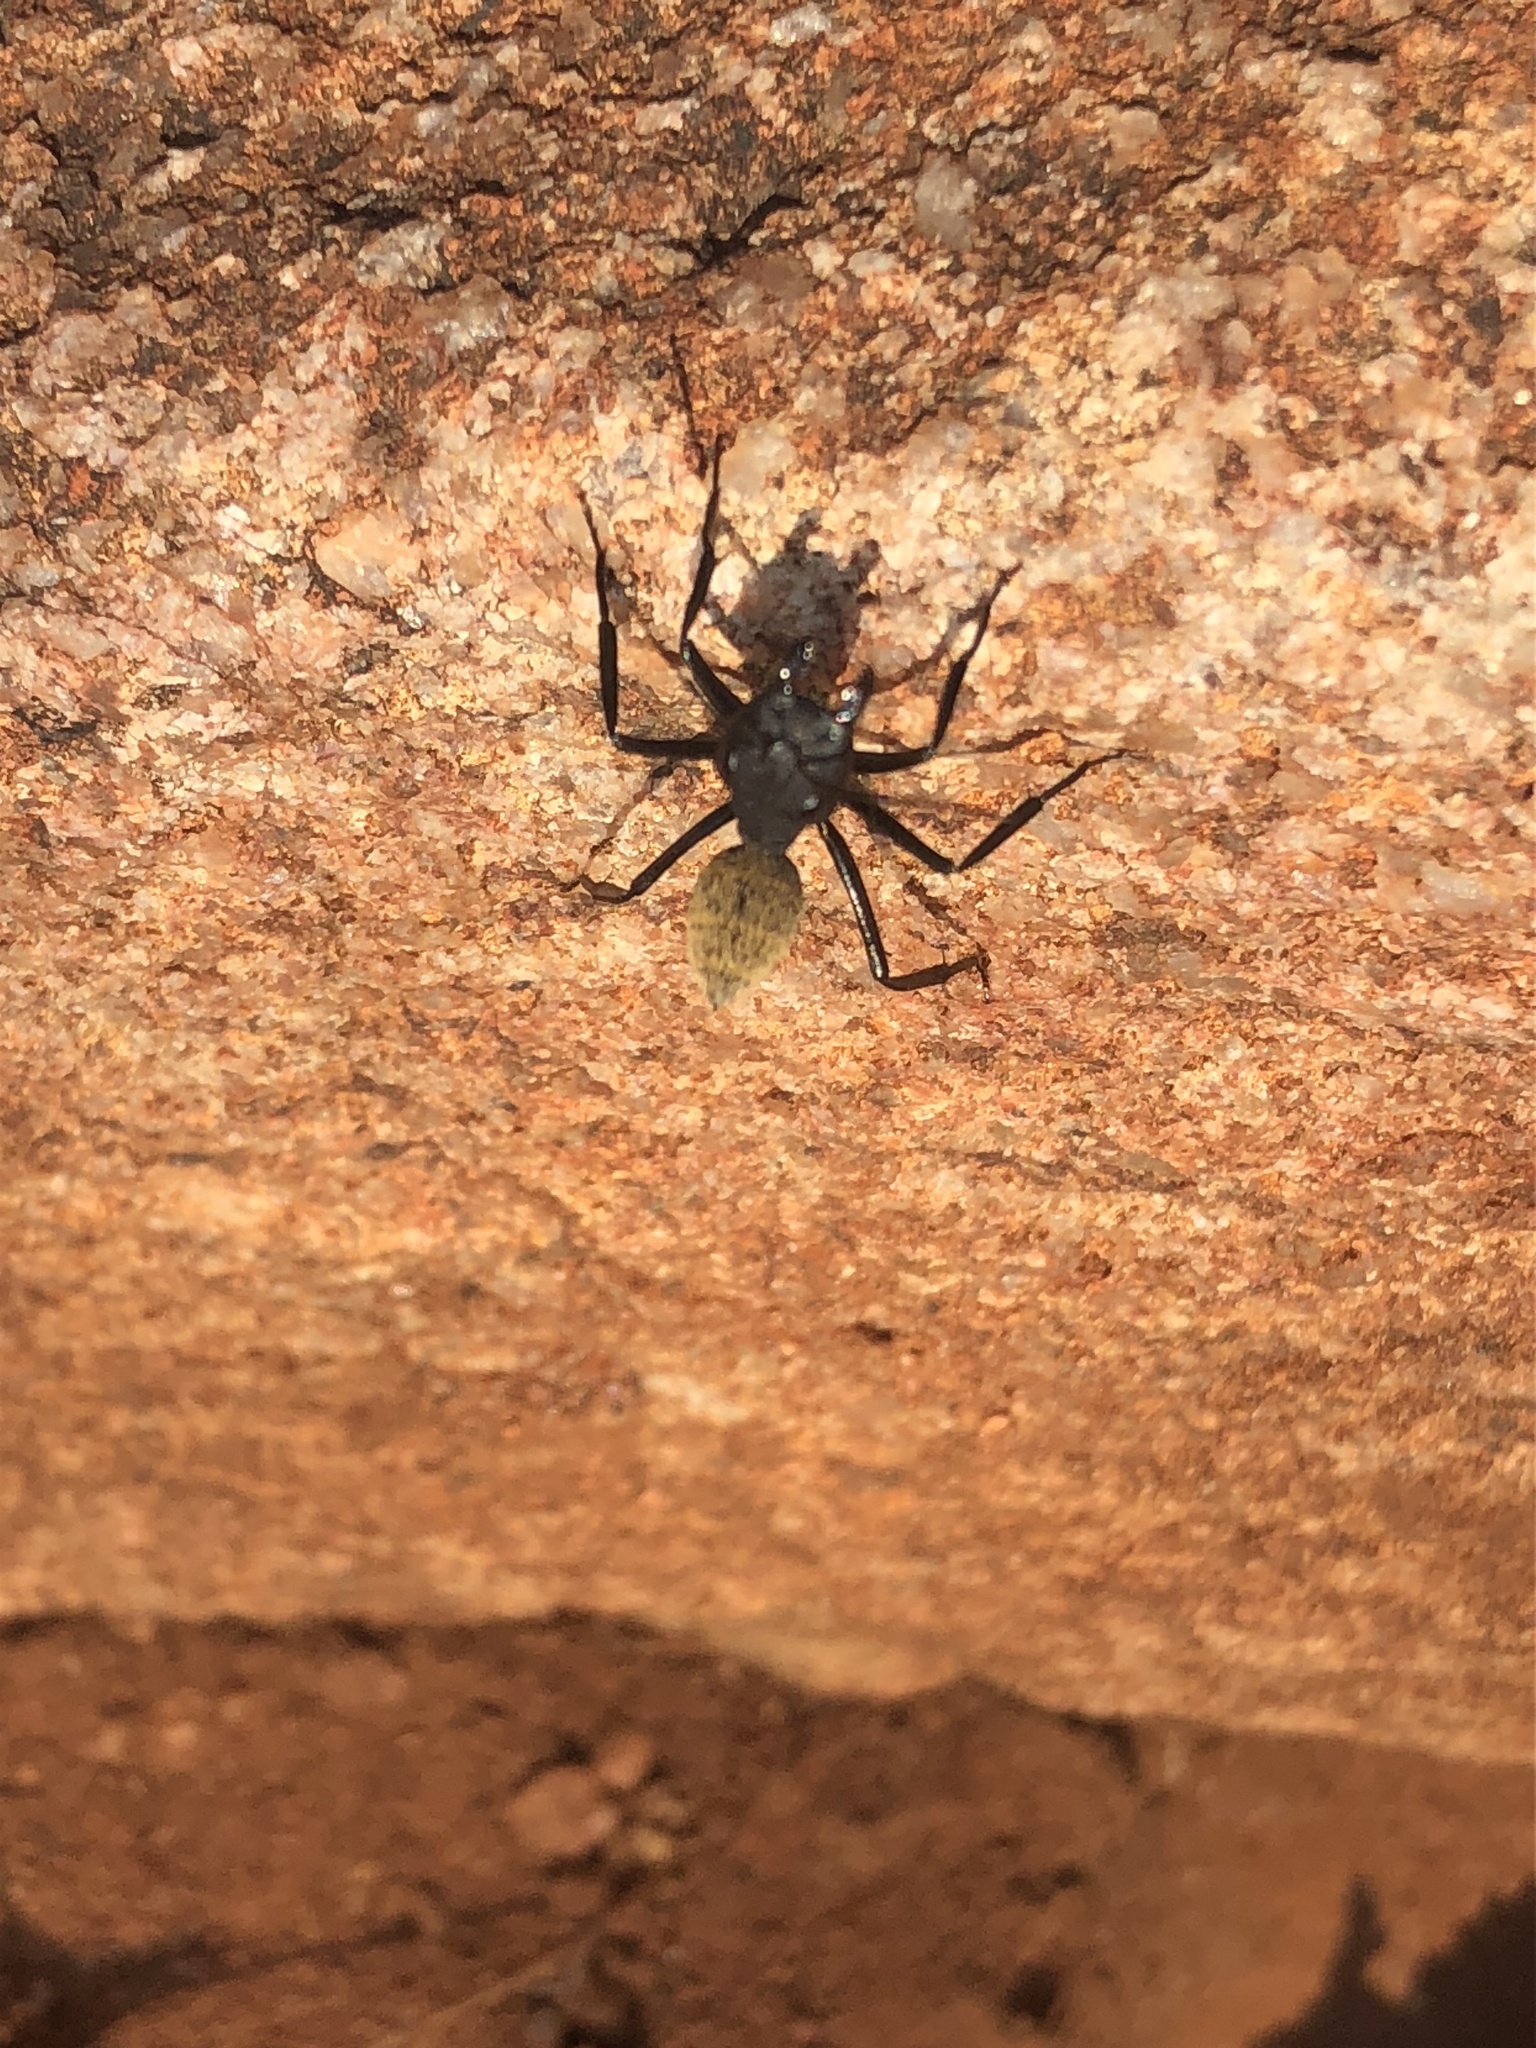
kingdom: Animalia
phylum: Arthropoda
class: Insecta
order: Hymenoptera
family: Formicidae
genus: Camponotus
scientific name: Camponotus fulvopilosus
